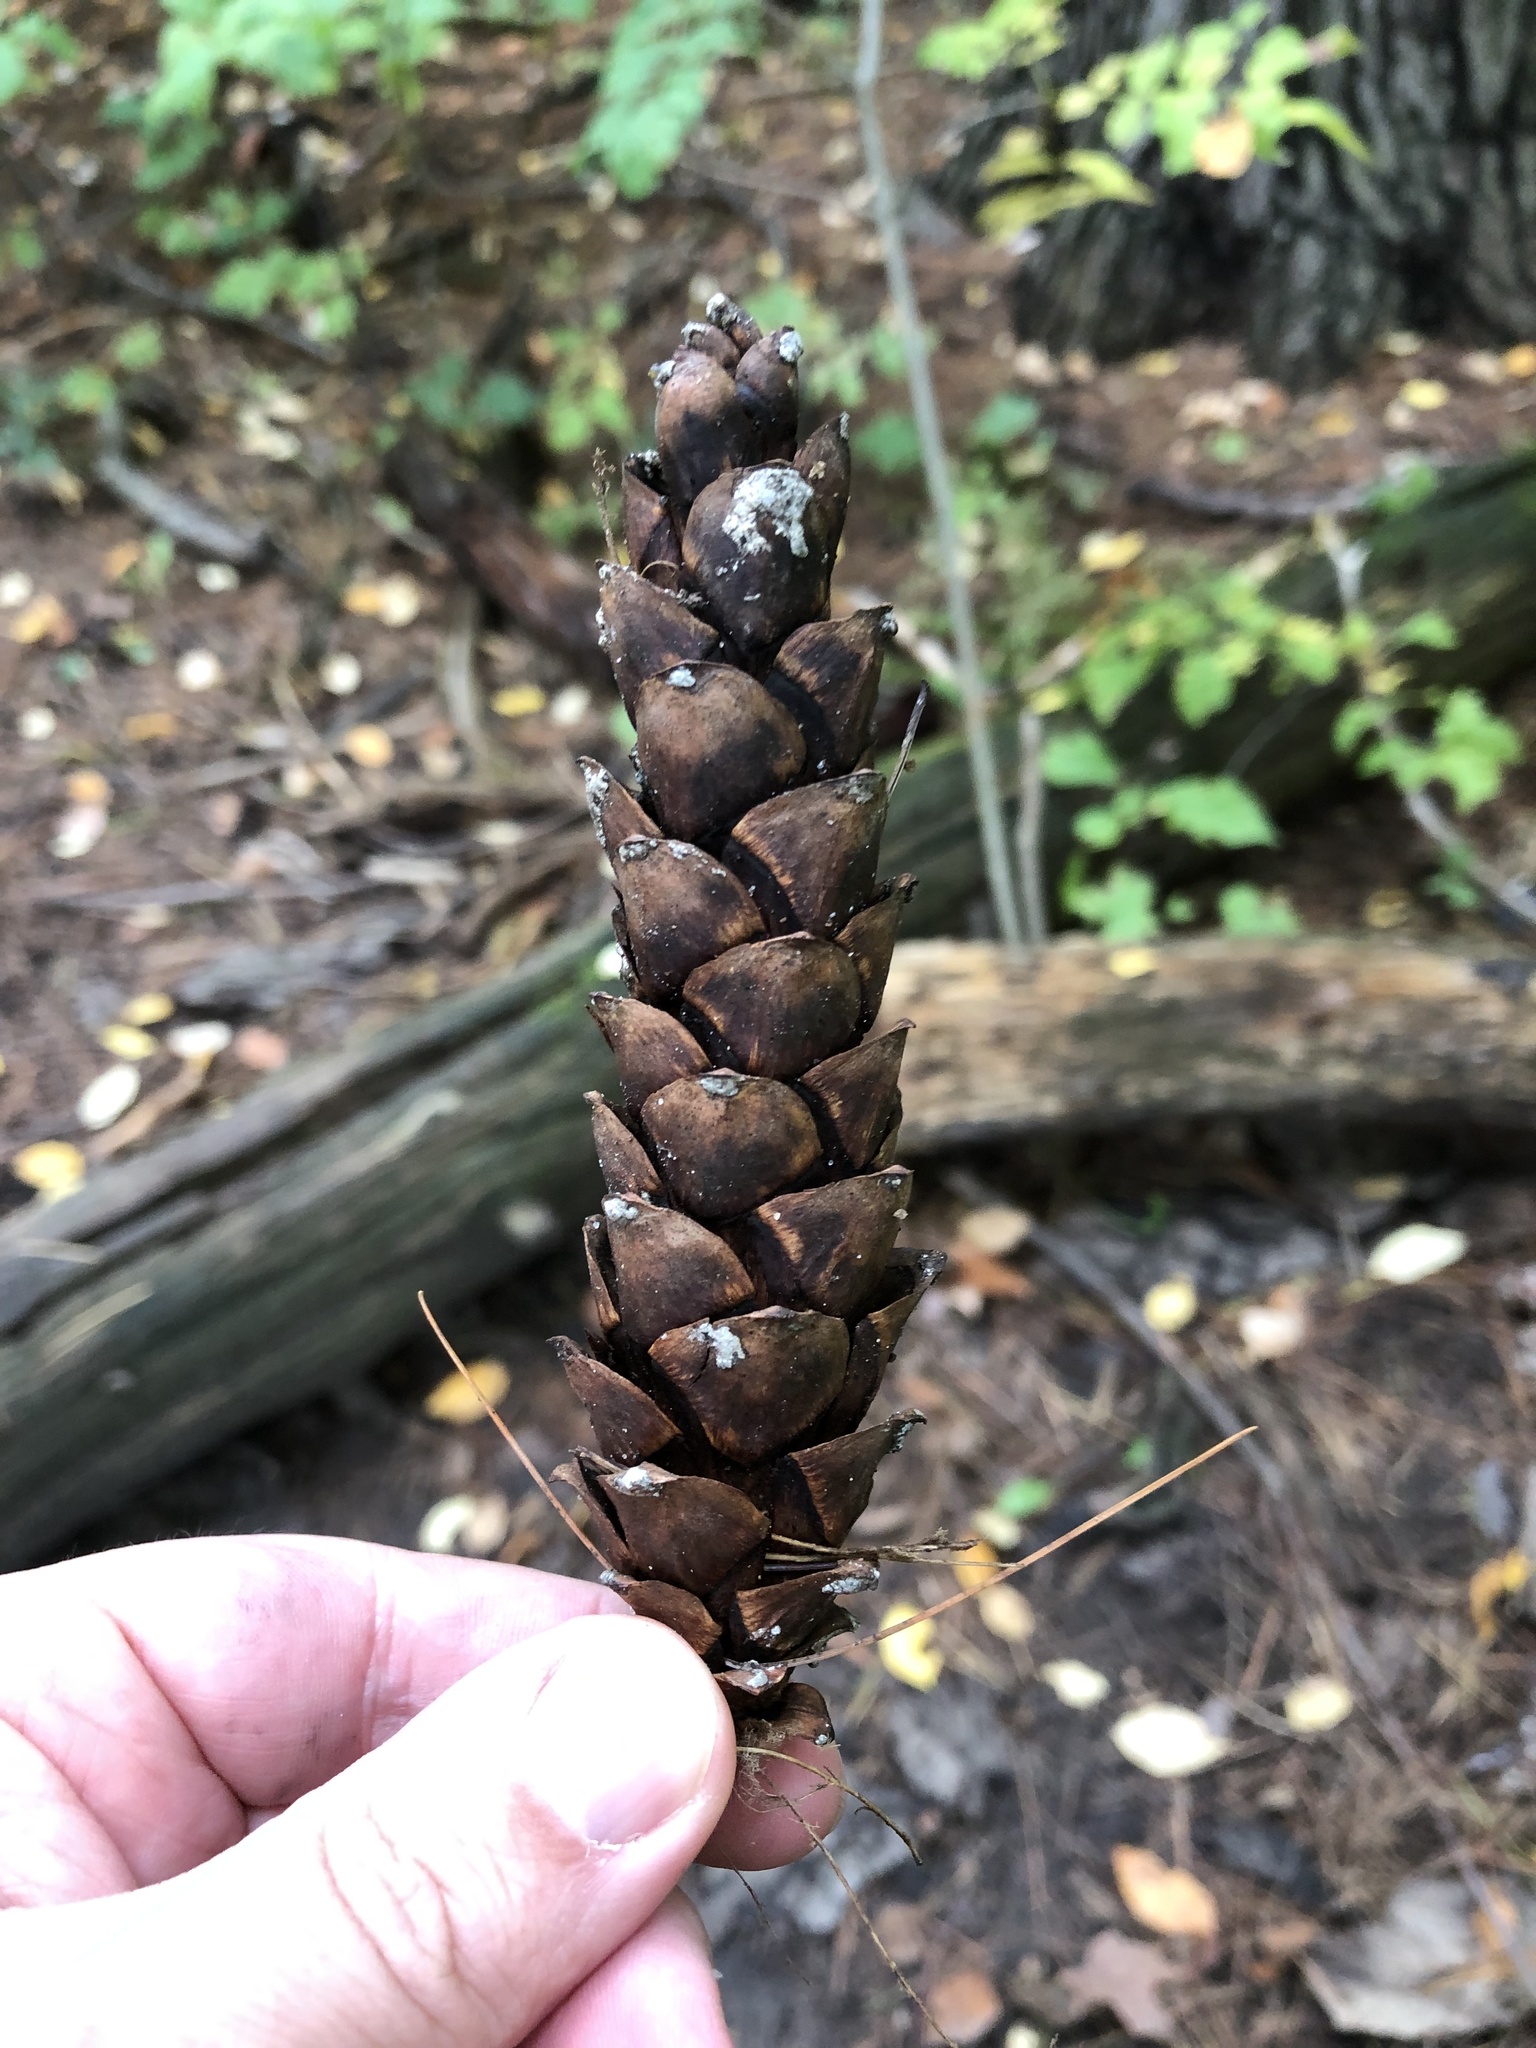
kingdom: Plantae
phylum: Tracheophyta
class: Pinopsida
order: Pinales
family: Pinaceae
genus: Pinus
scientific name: Pinus strobus
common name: Weymouth pine
